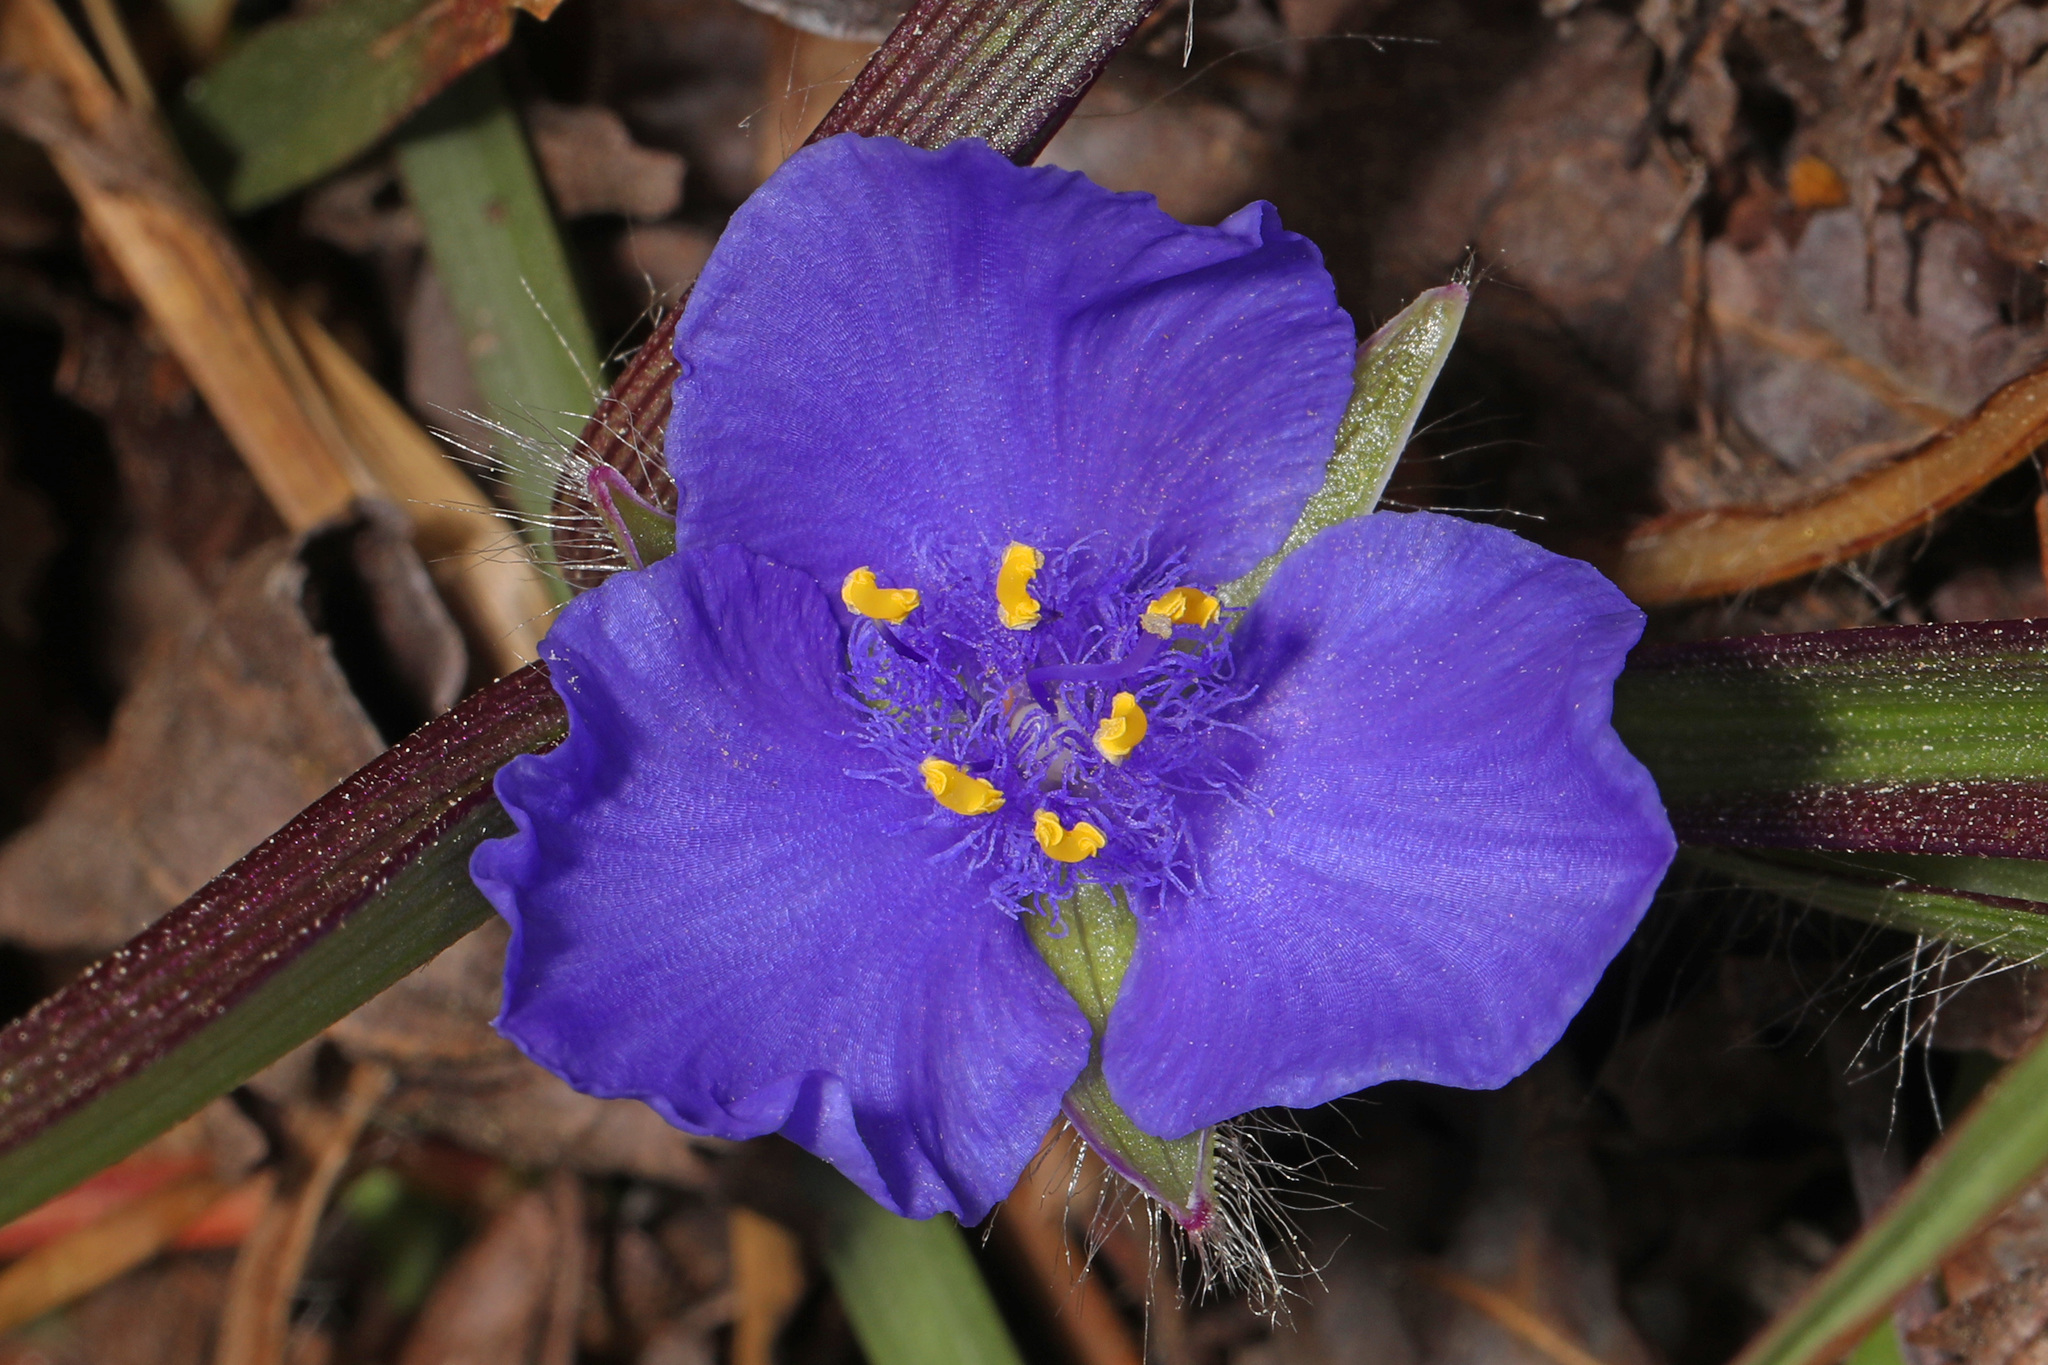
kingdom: Plantae
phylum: Tracheophyta
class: Liliopsida
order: Commelinales
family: Commelinaceae
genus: Tradescantia
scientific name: Tradescantia hirsutiflora
